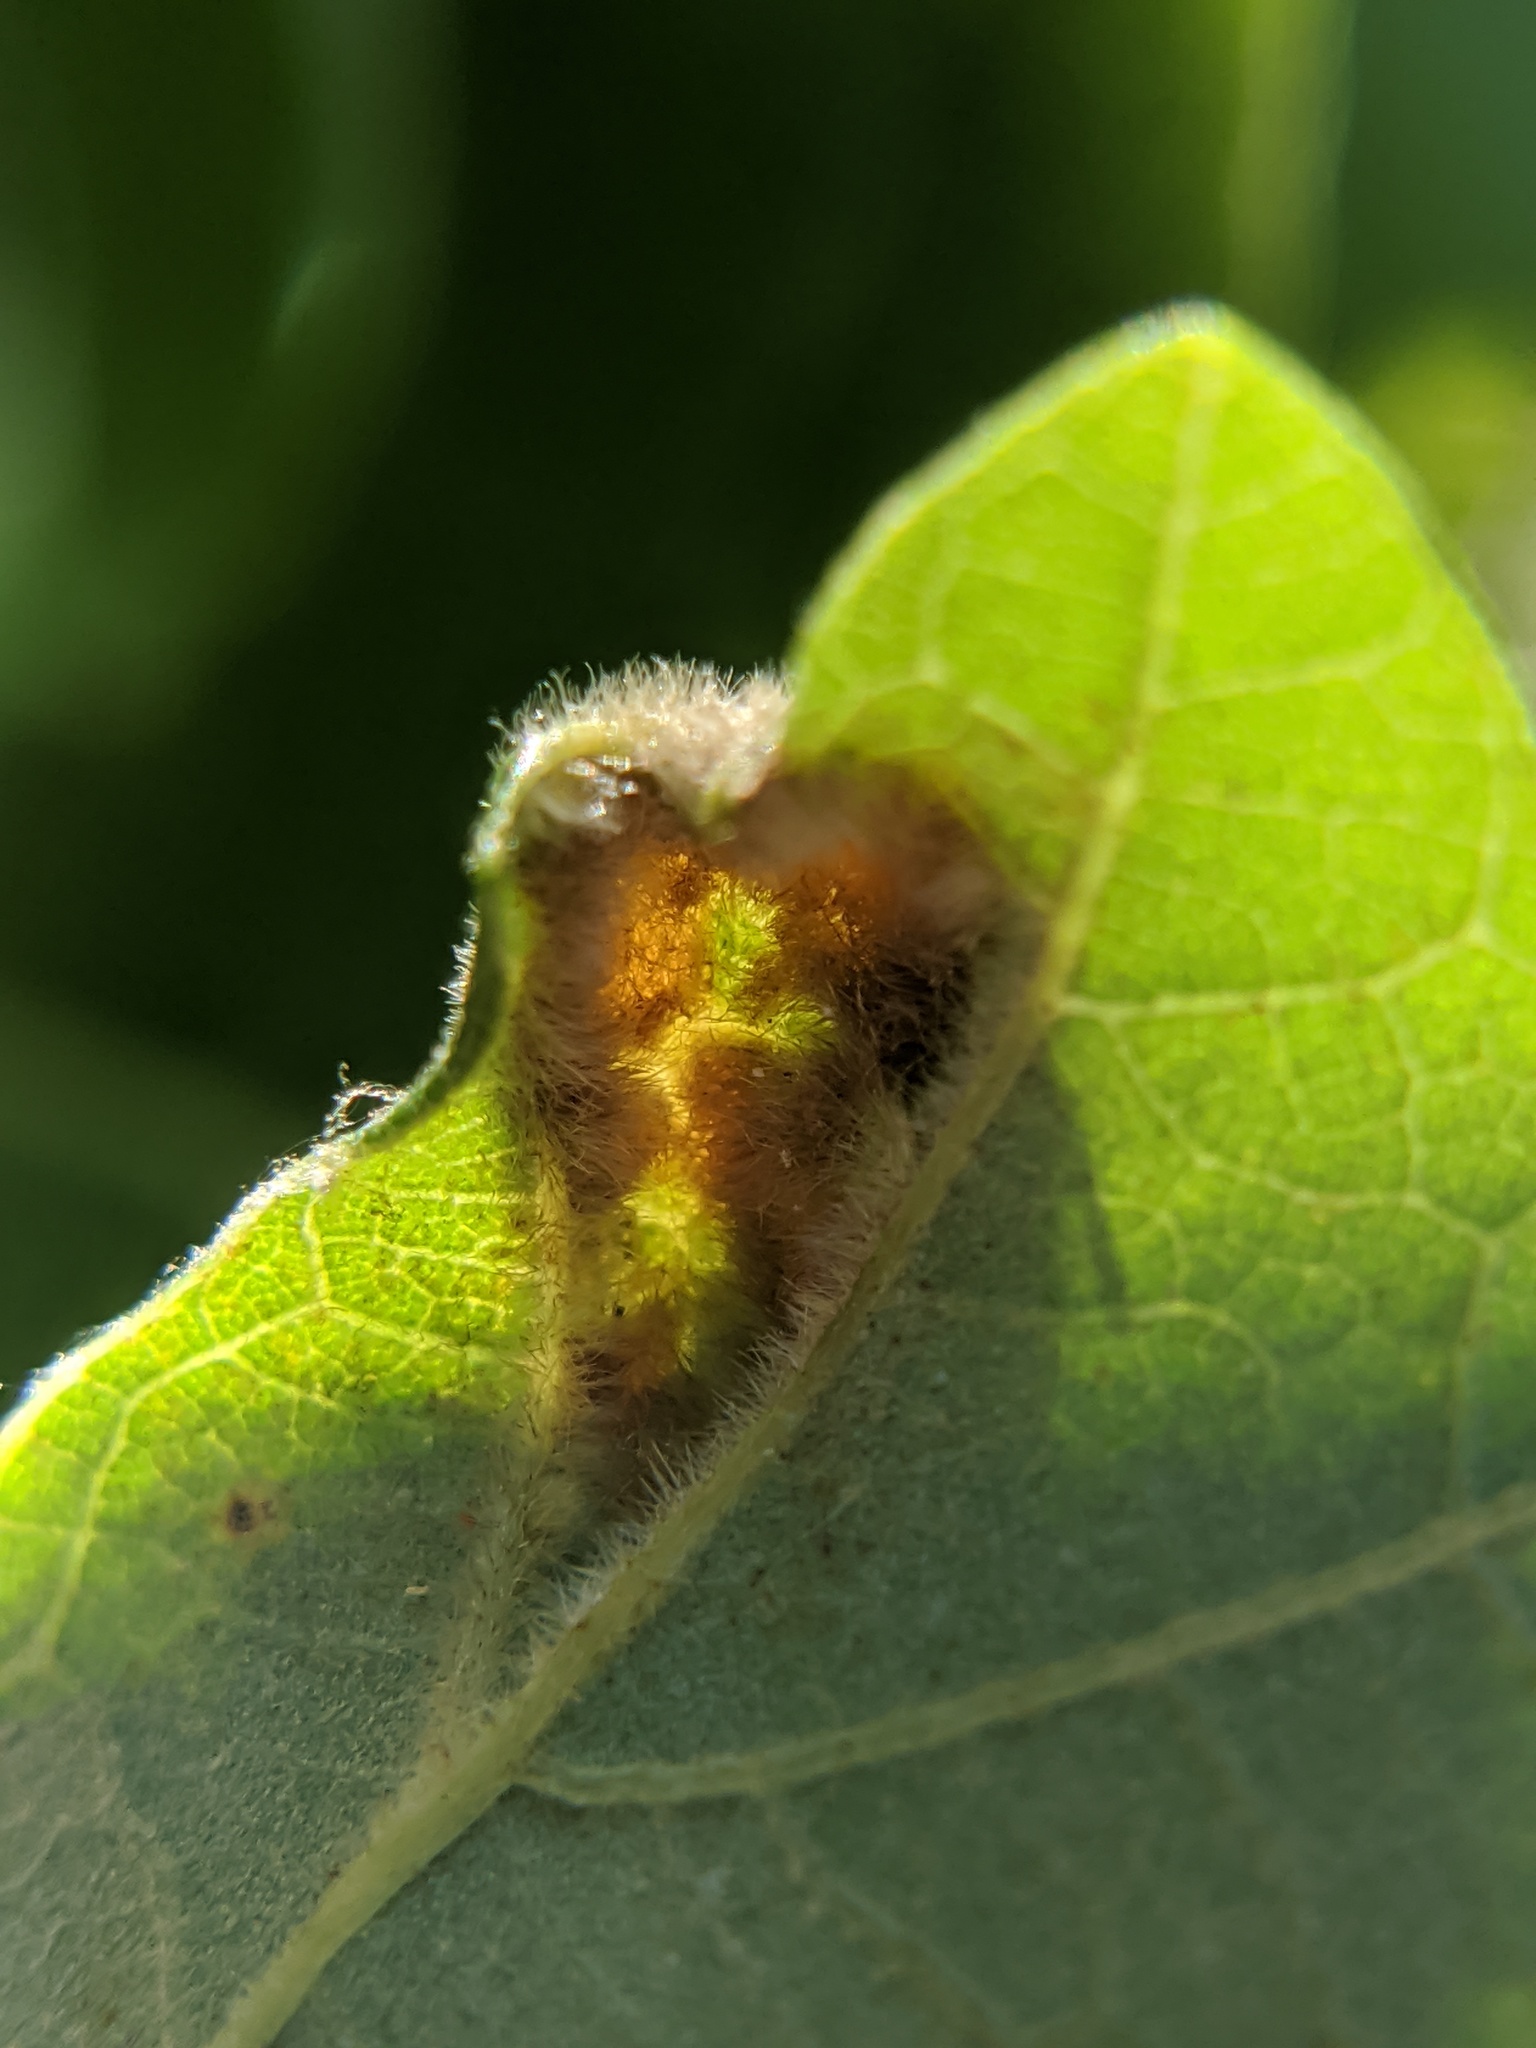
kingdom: Animalia
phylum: Arthropoda
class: Arachnida
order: Trombidiformes
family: Eriophyidae
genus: Aceria
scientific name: Aceria quercina
